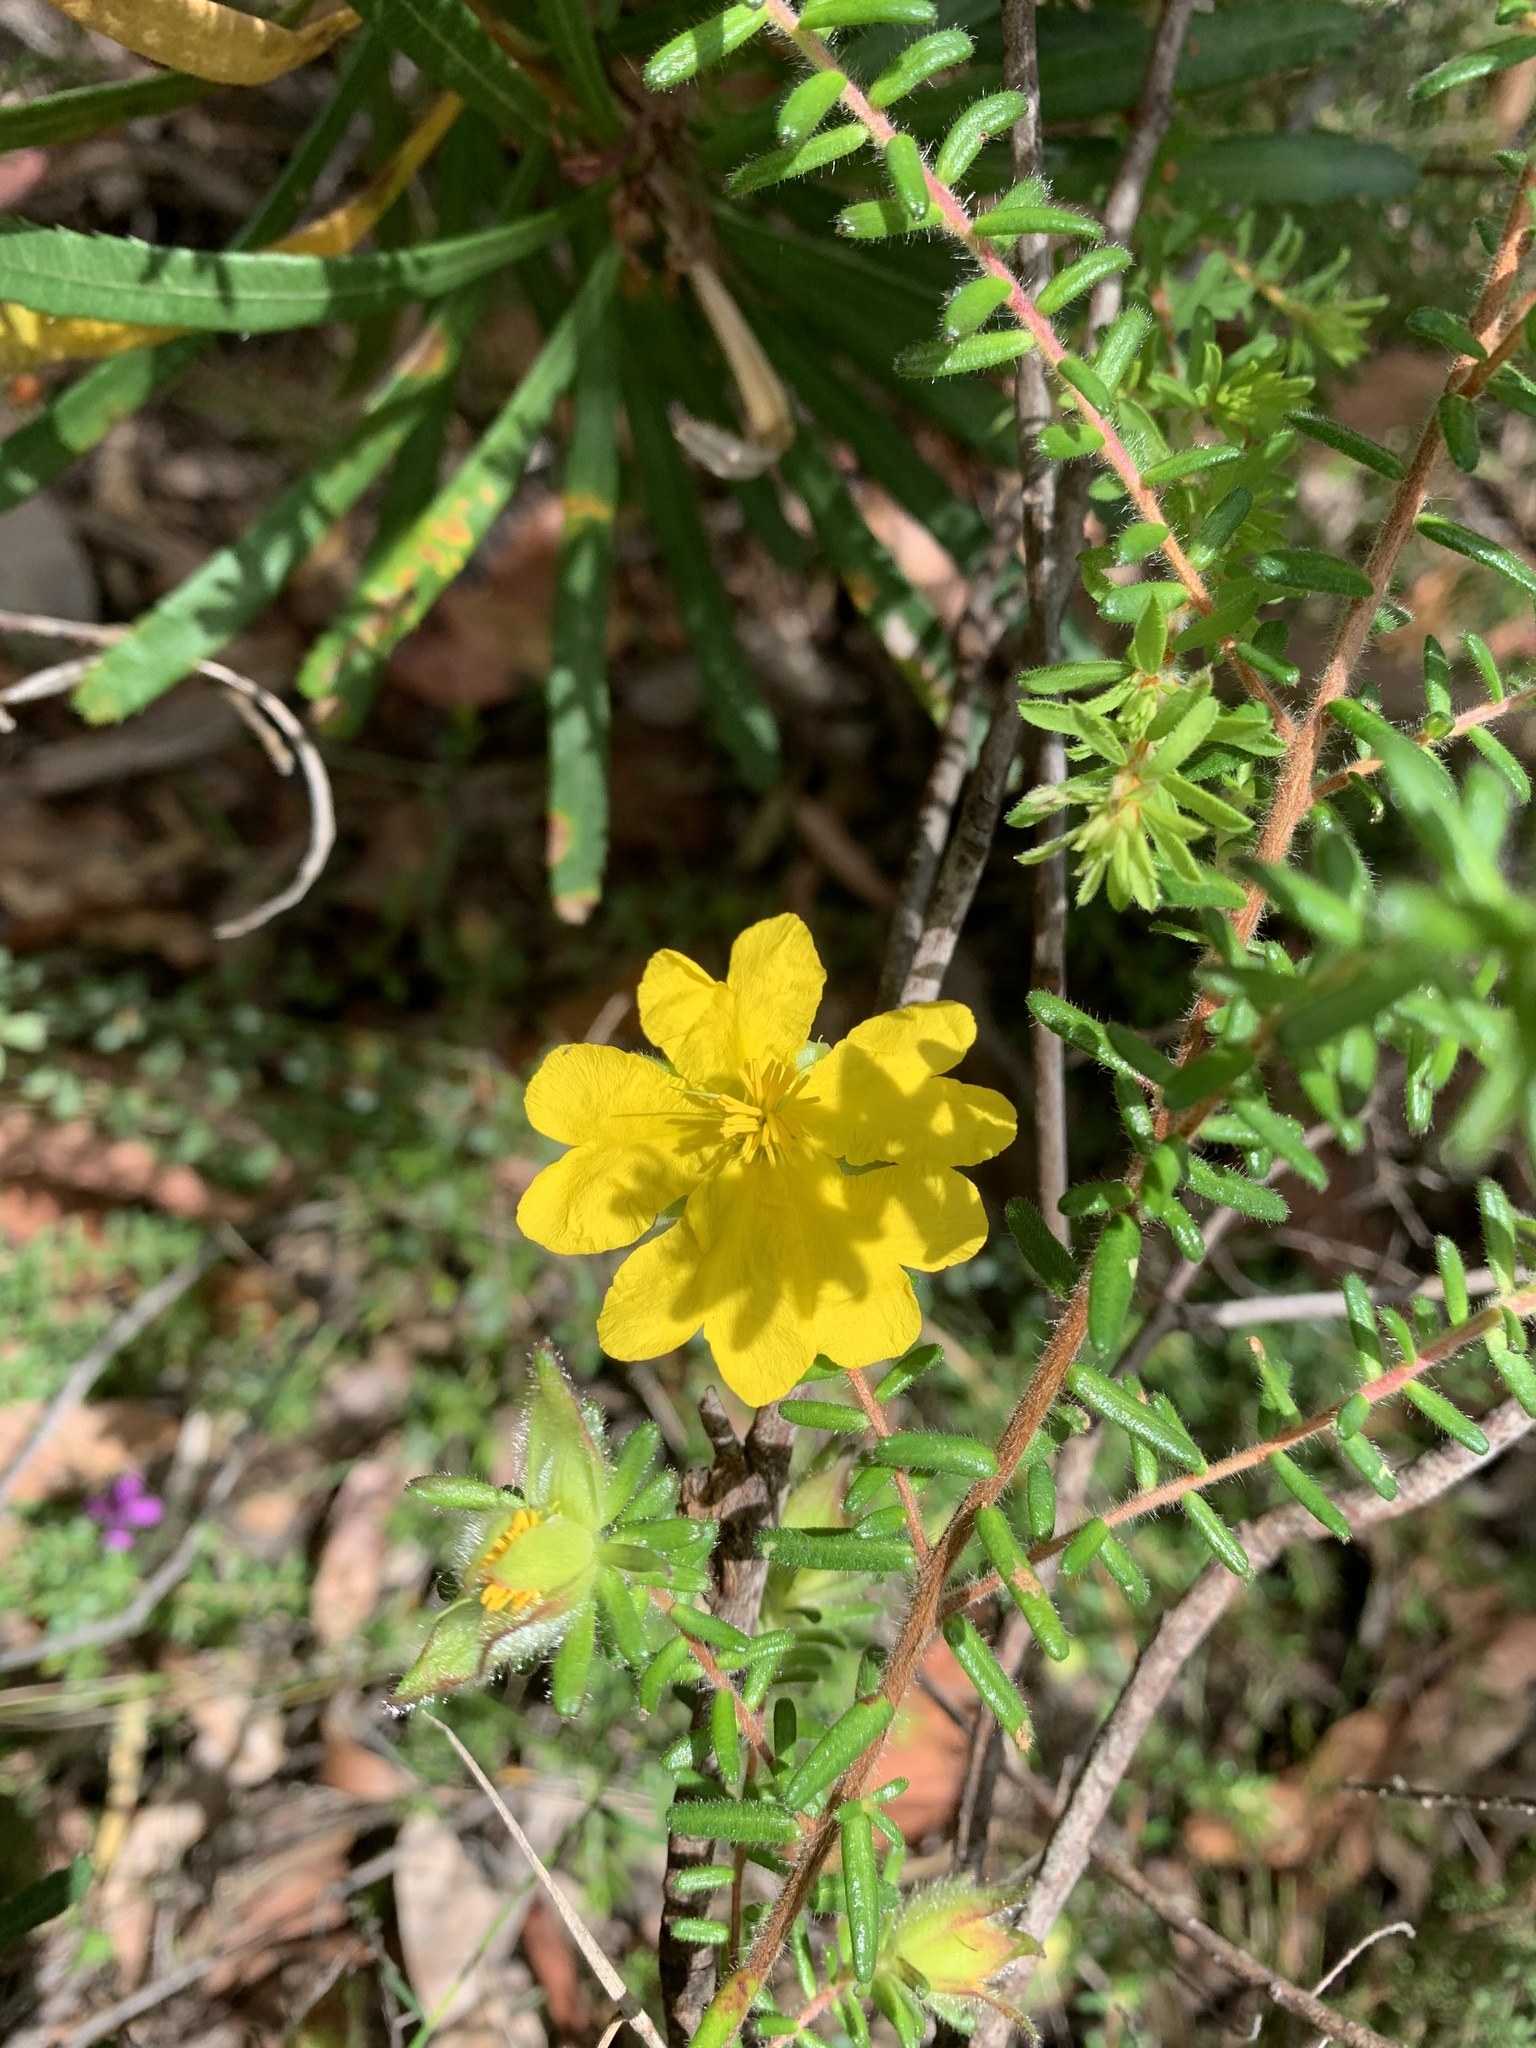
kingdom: Plantae
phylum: Tracheophyta
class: Magnoliopsida
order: Dilleniales
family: Dilleniaceae
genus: Hibbertia
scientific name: Hibbertia vestita
